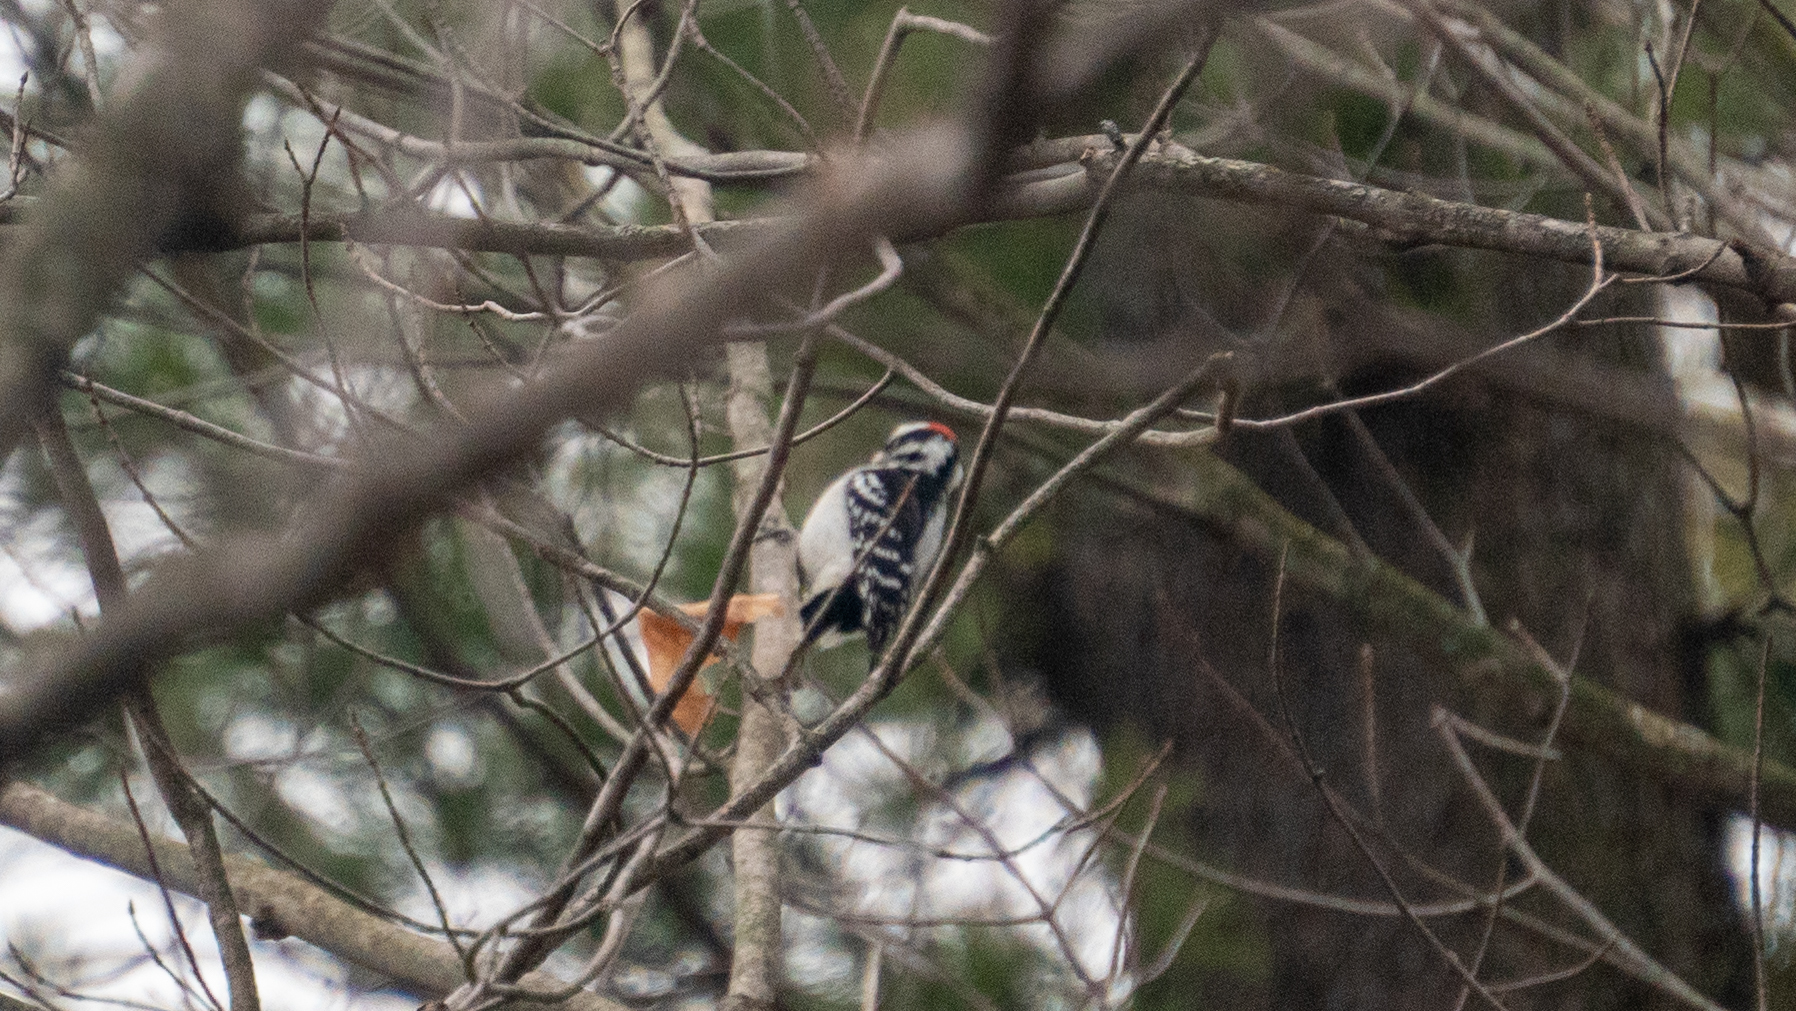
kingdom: Animalia
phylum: Chordata
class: Aves
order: Piciformes
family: Picidae
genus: Dryobates
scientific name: Dryobates pubescens
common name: Downy woodpecker
